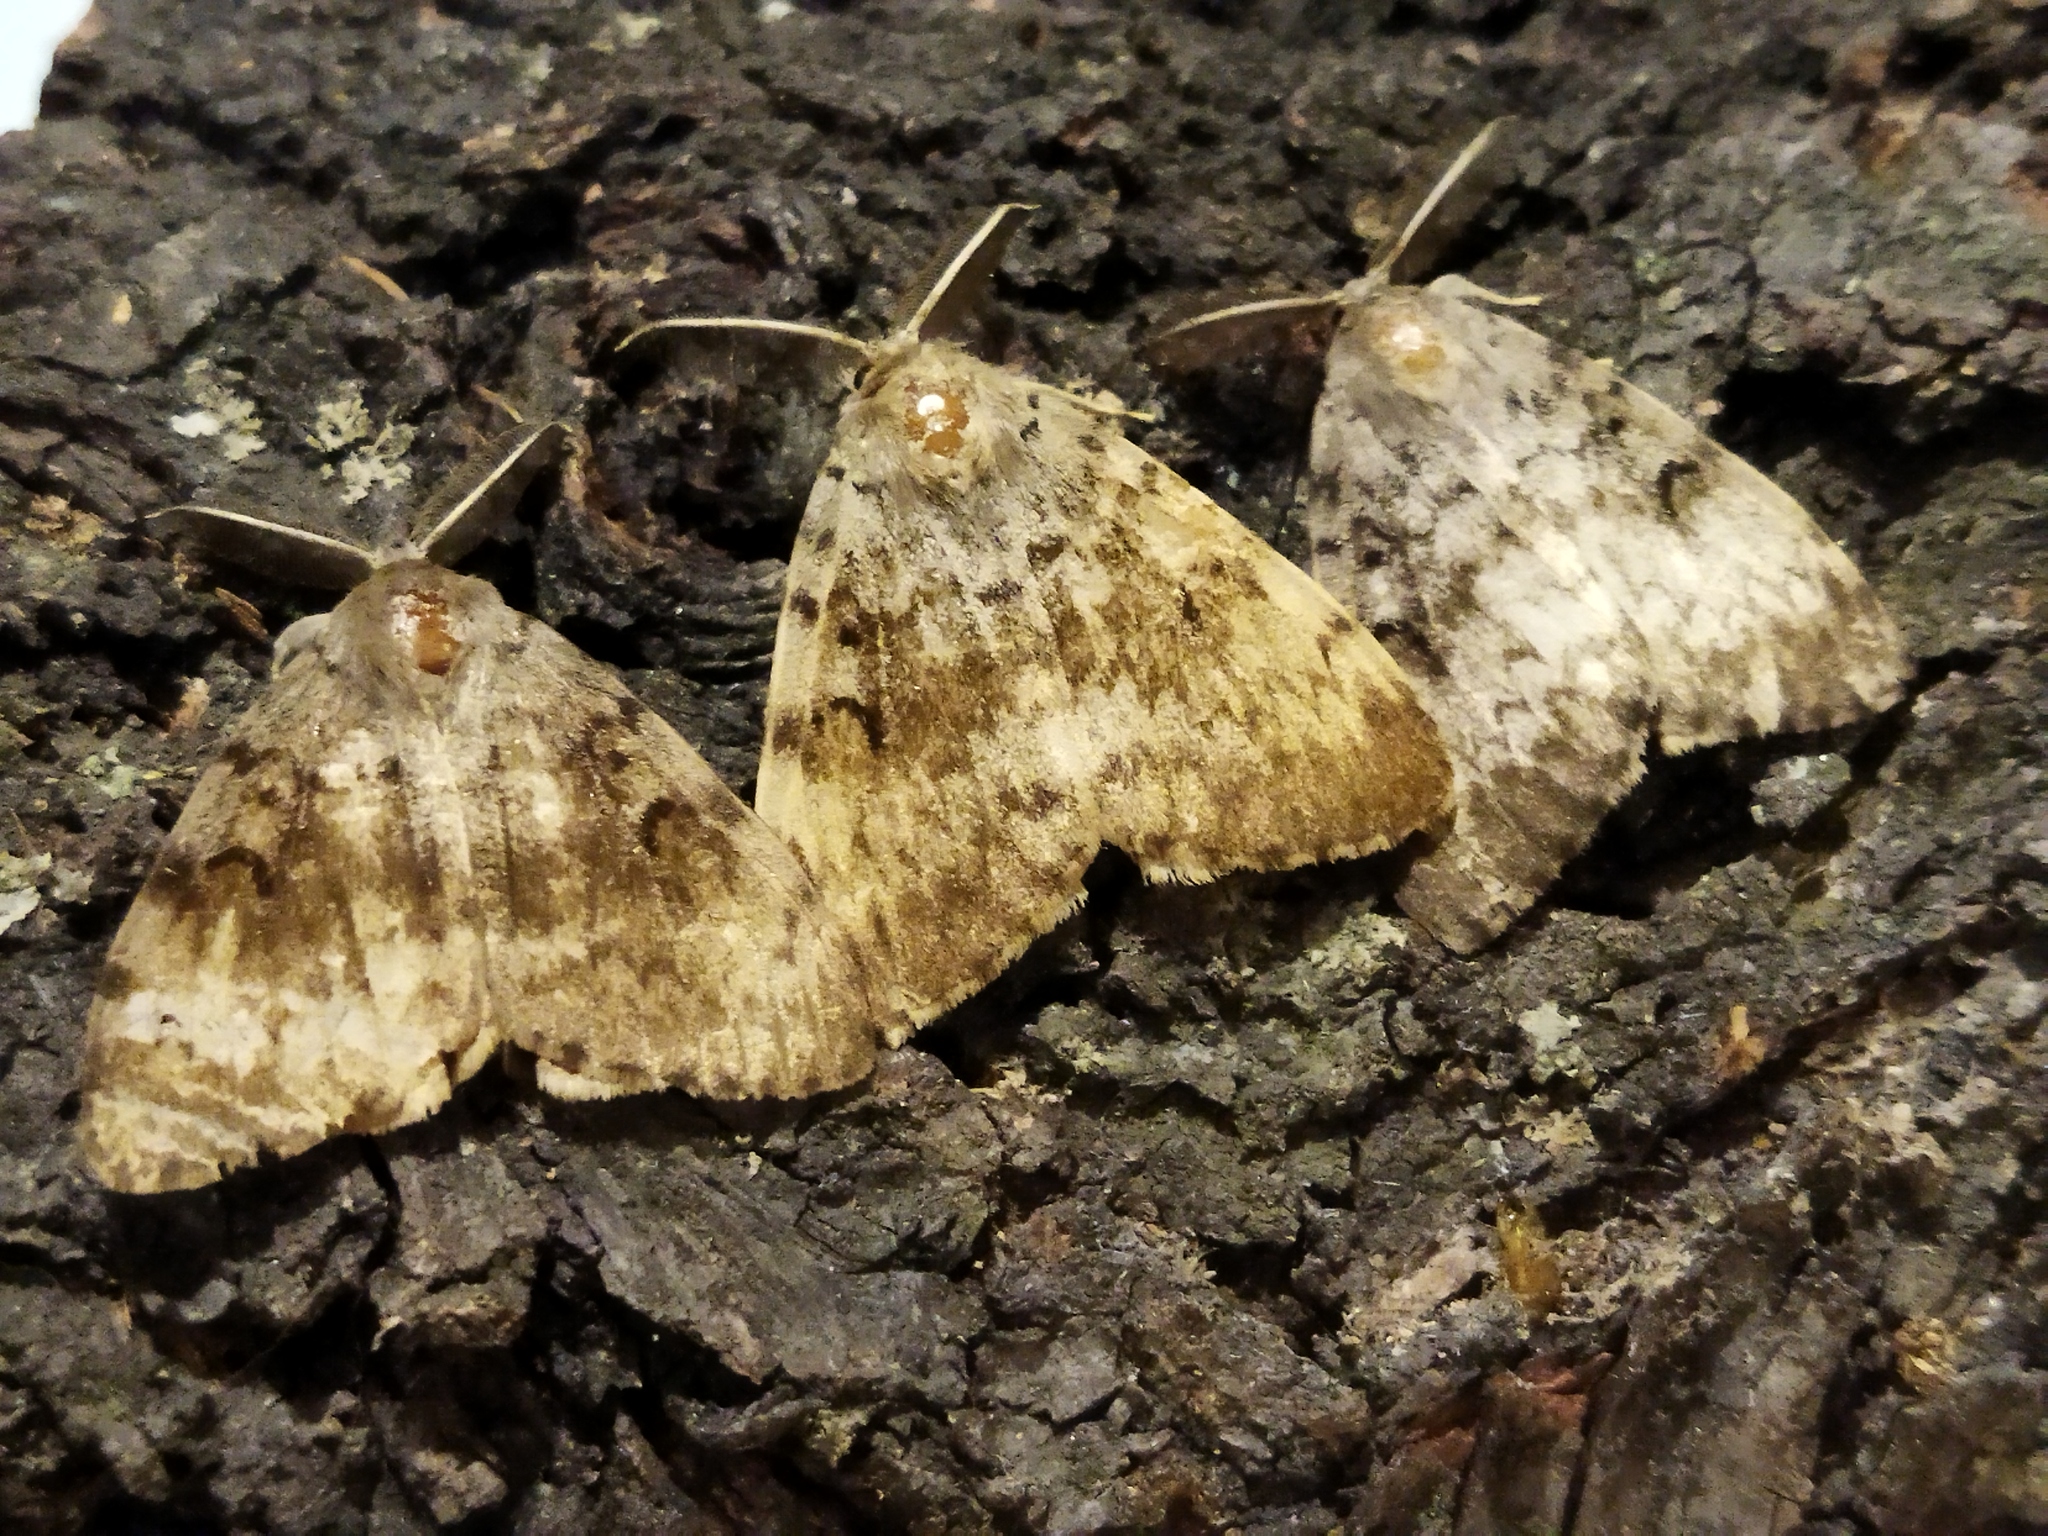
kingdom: Animalia
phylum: Arthropoda
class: Insecta
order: Lepidoptera
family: Erebidae
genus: Lymantria
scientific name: Lymantria dispar
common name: Gypsy moth
